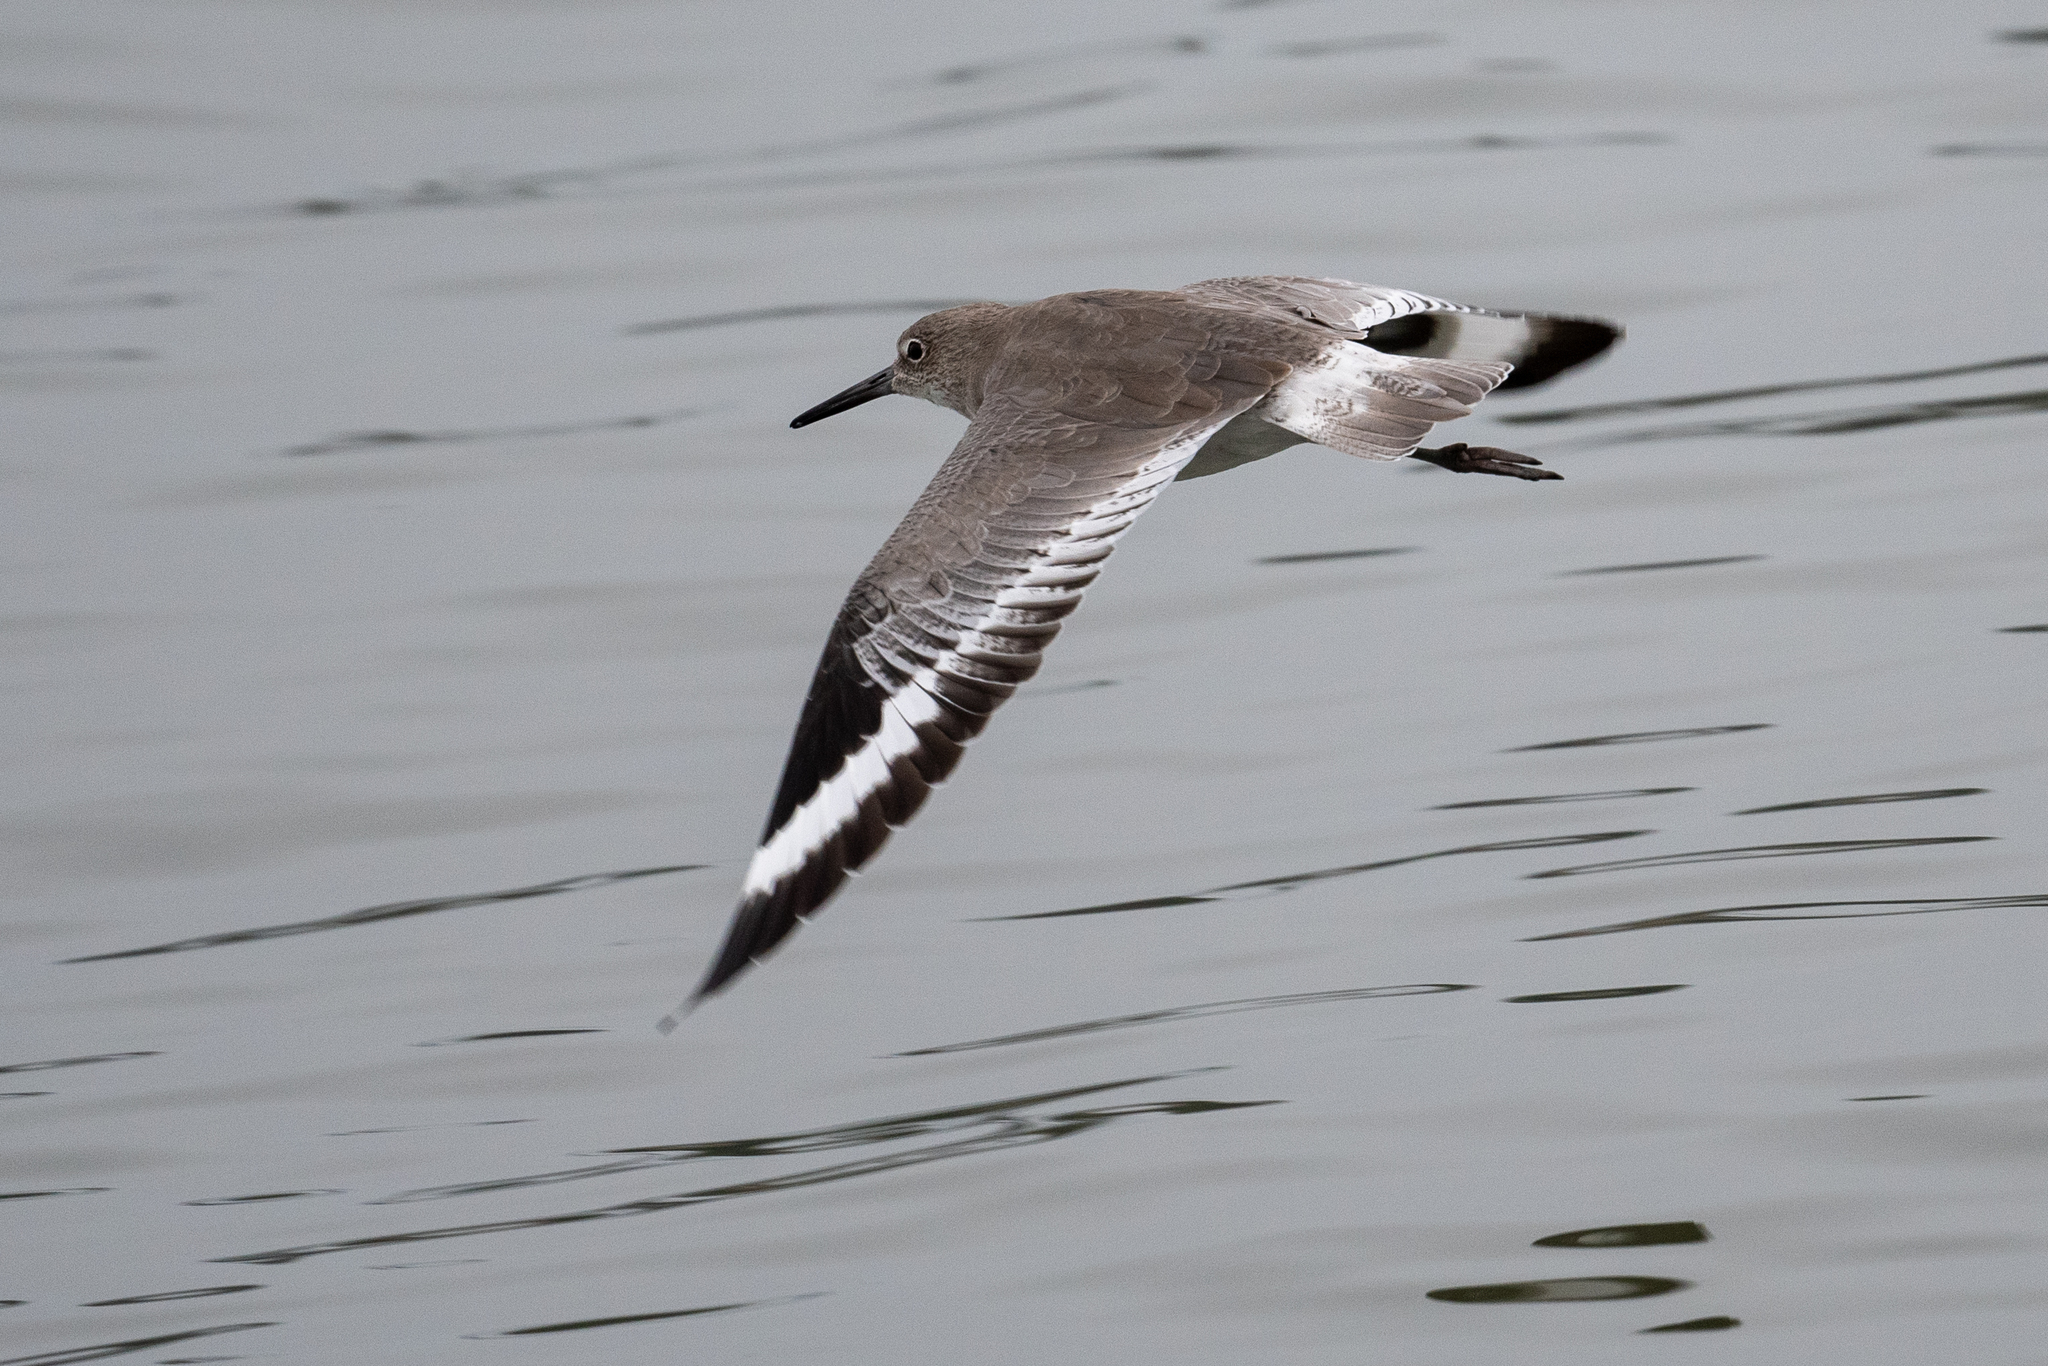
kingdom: Animalia
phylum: Chordata
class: Aves
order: Charadriiformes
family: Scolopacidae
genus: Tringa
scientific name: Tringa semipalmata
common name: Willet
